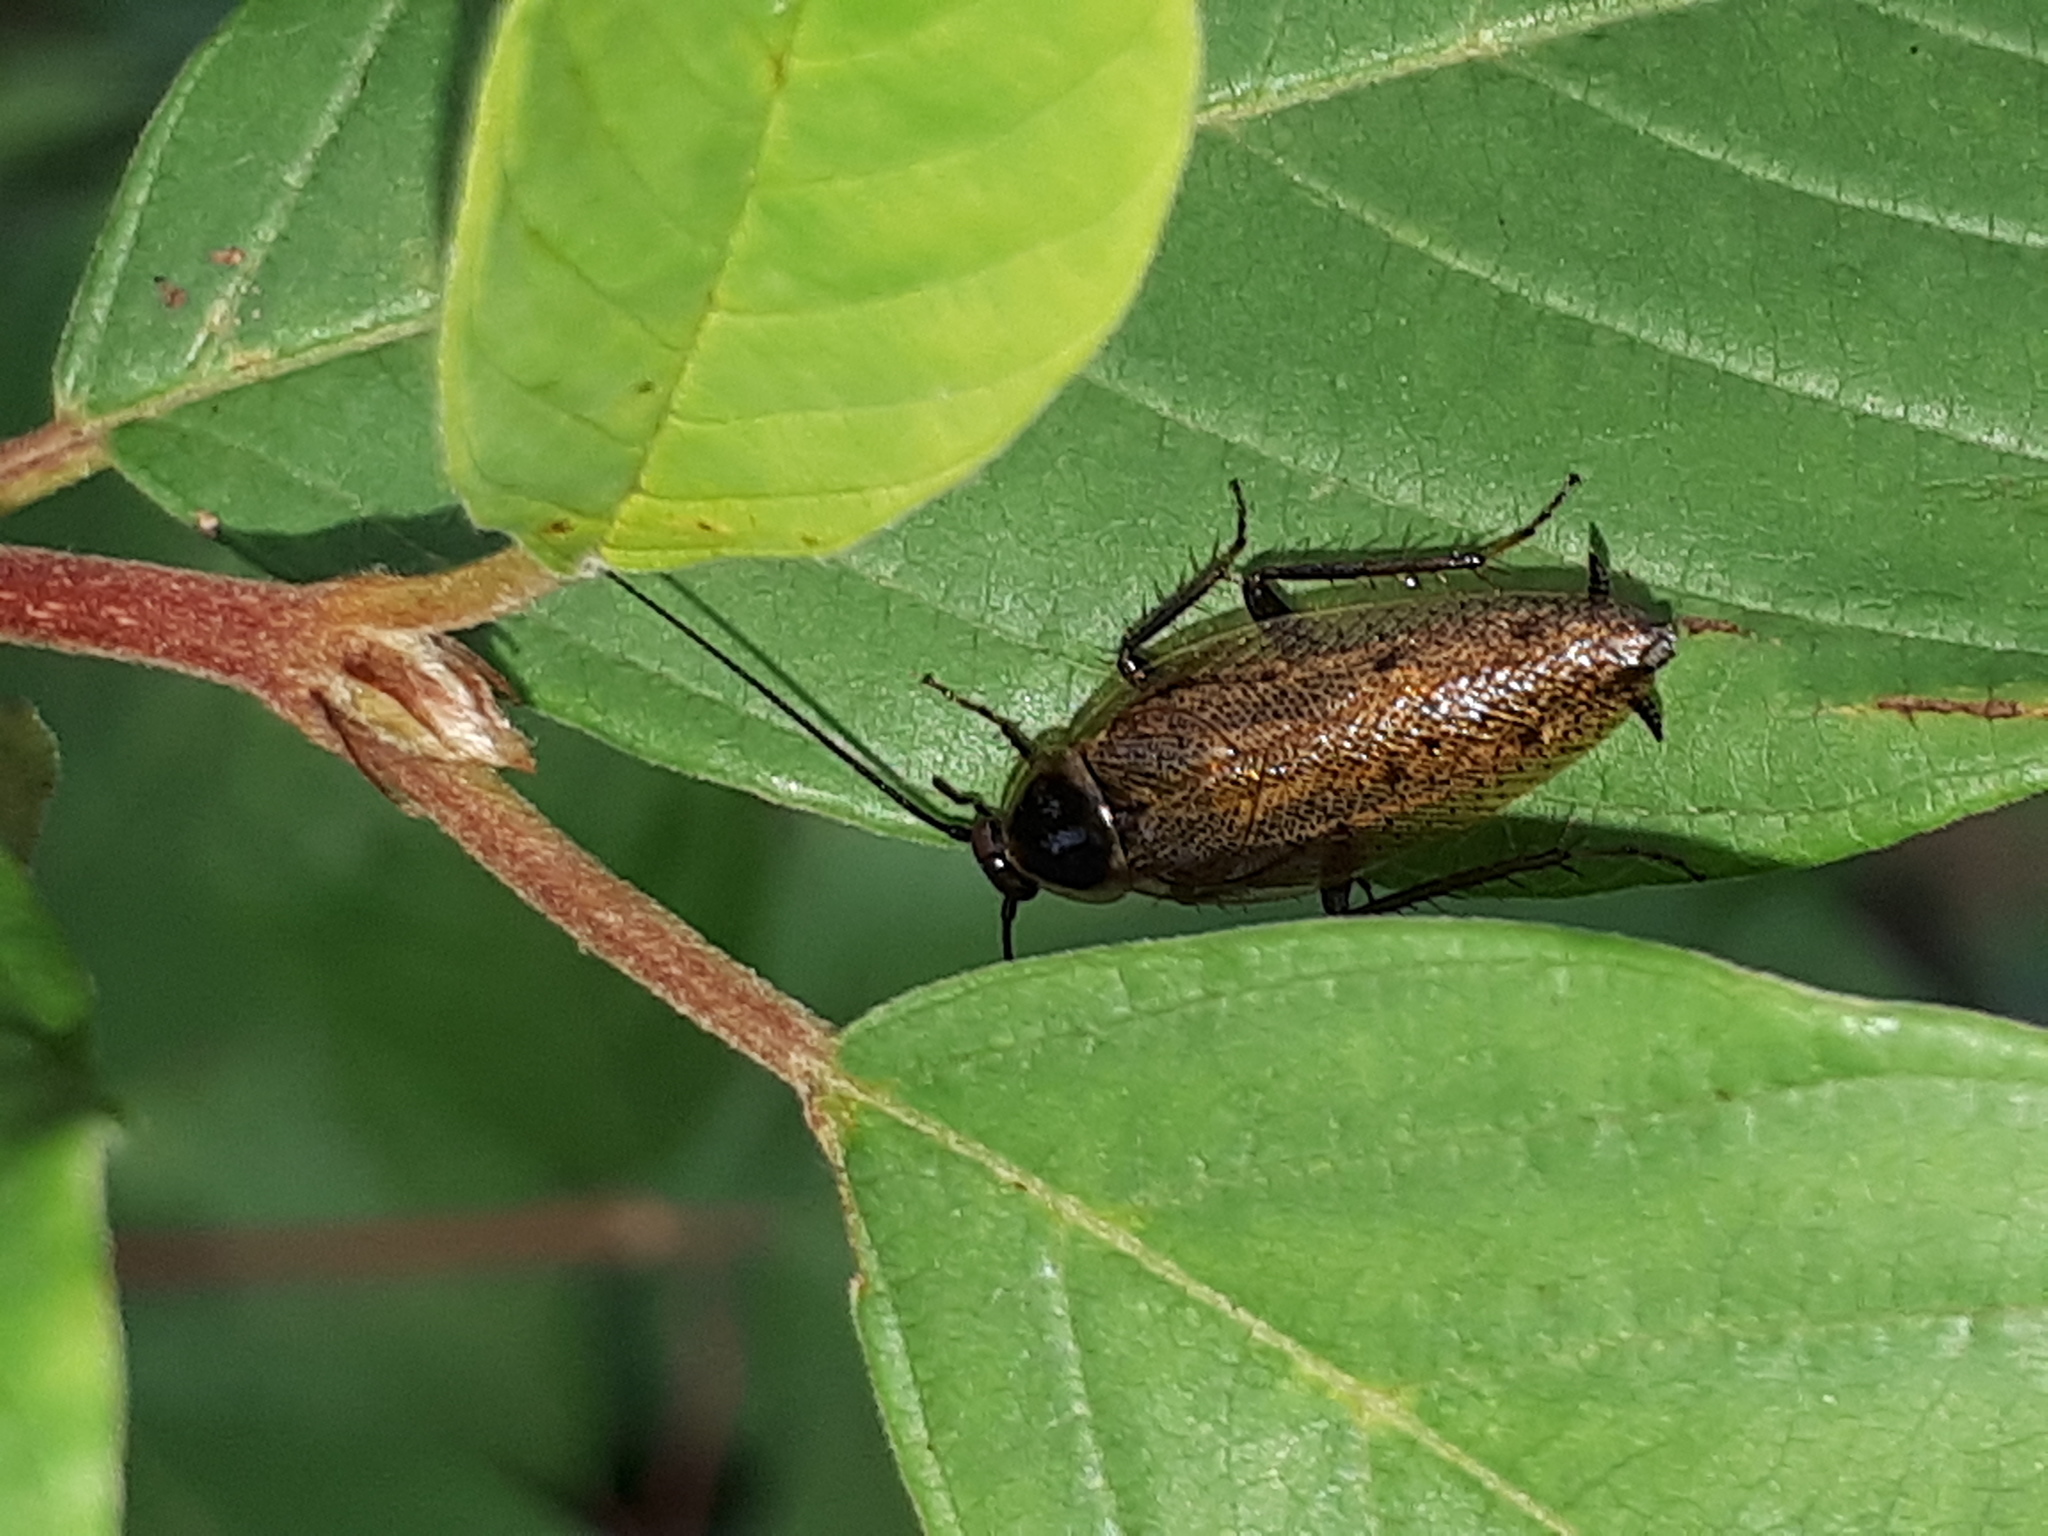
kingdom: Animalia
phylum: Arthropoda
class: Insecta
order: Blattodea
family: Ectobiidae
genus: Ectobius
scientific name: Ectobius sylvestris
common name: Forest cockroach
